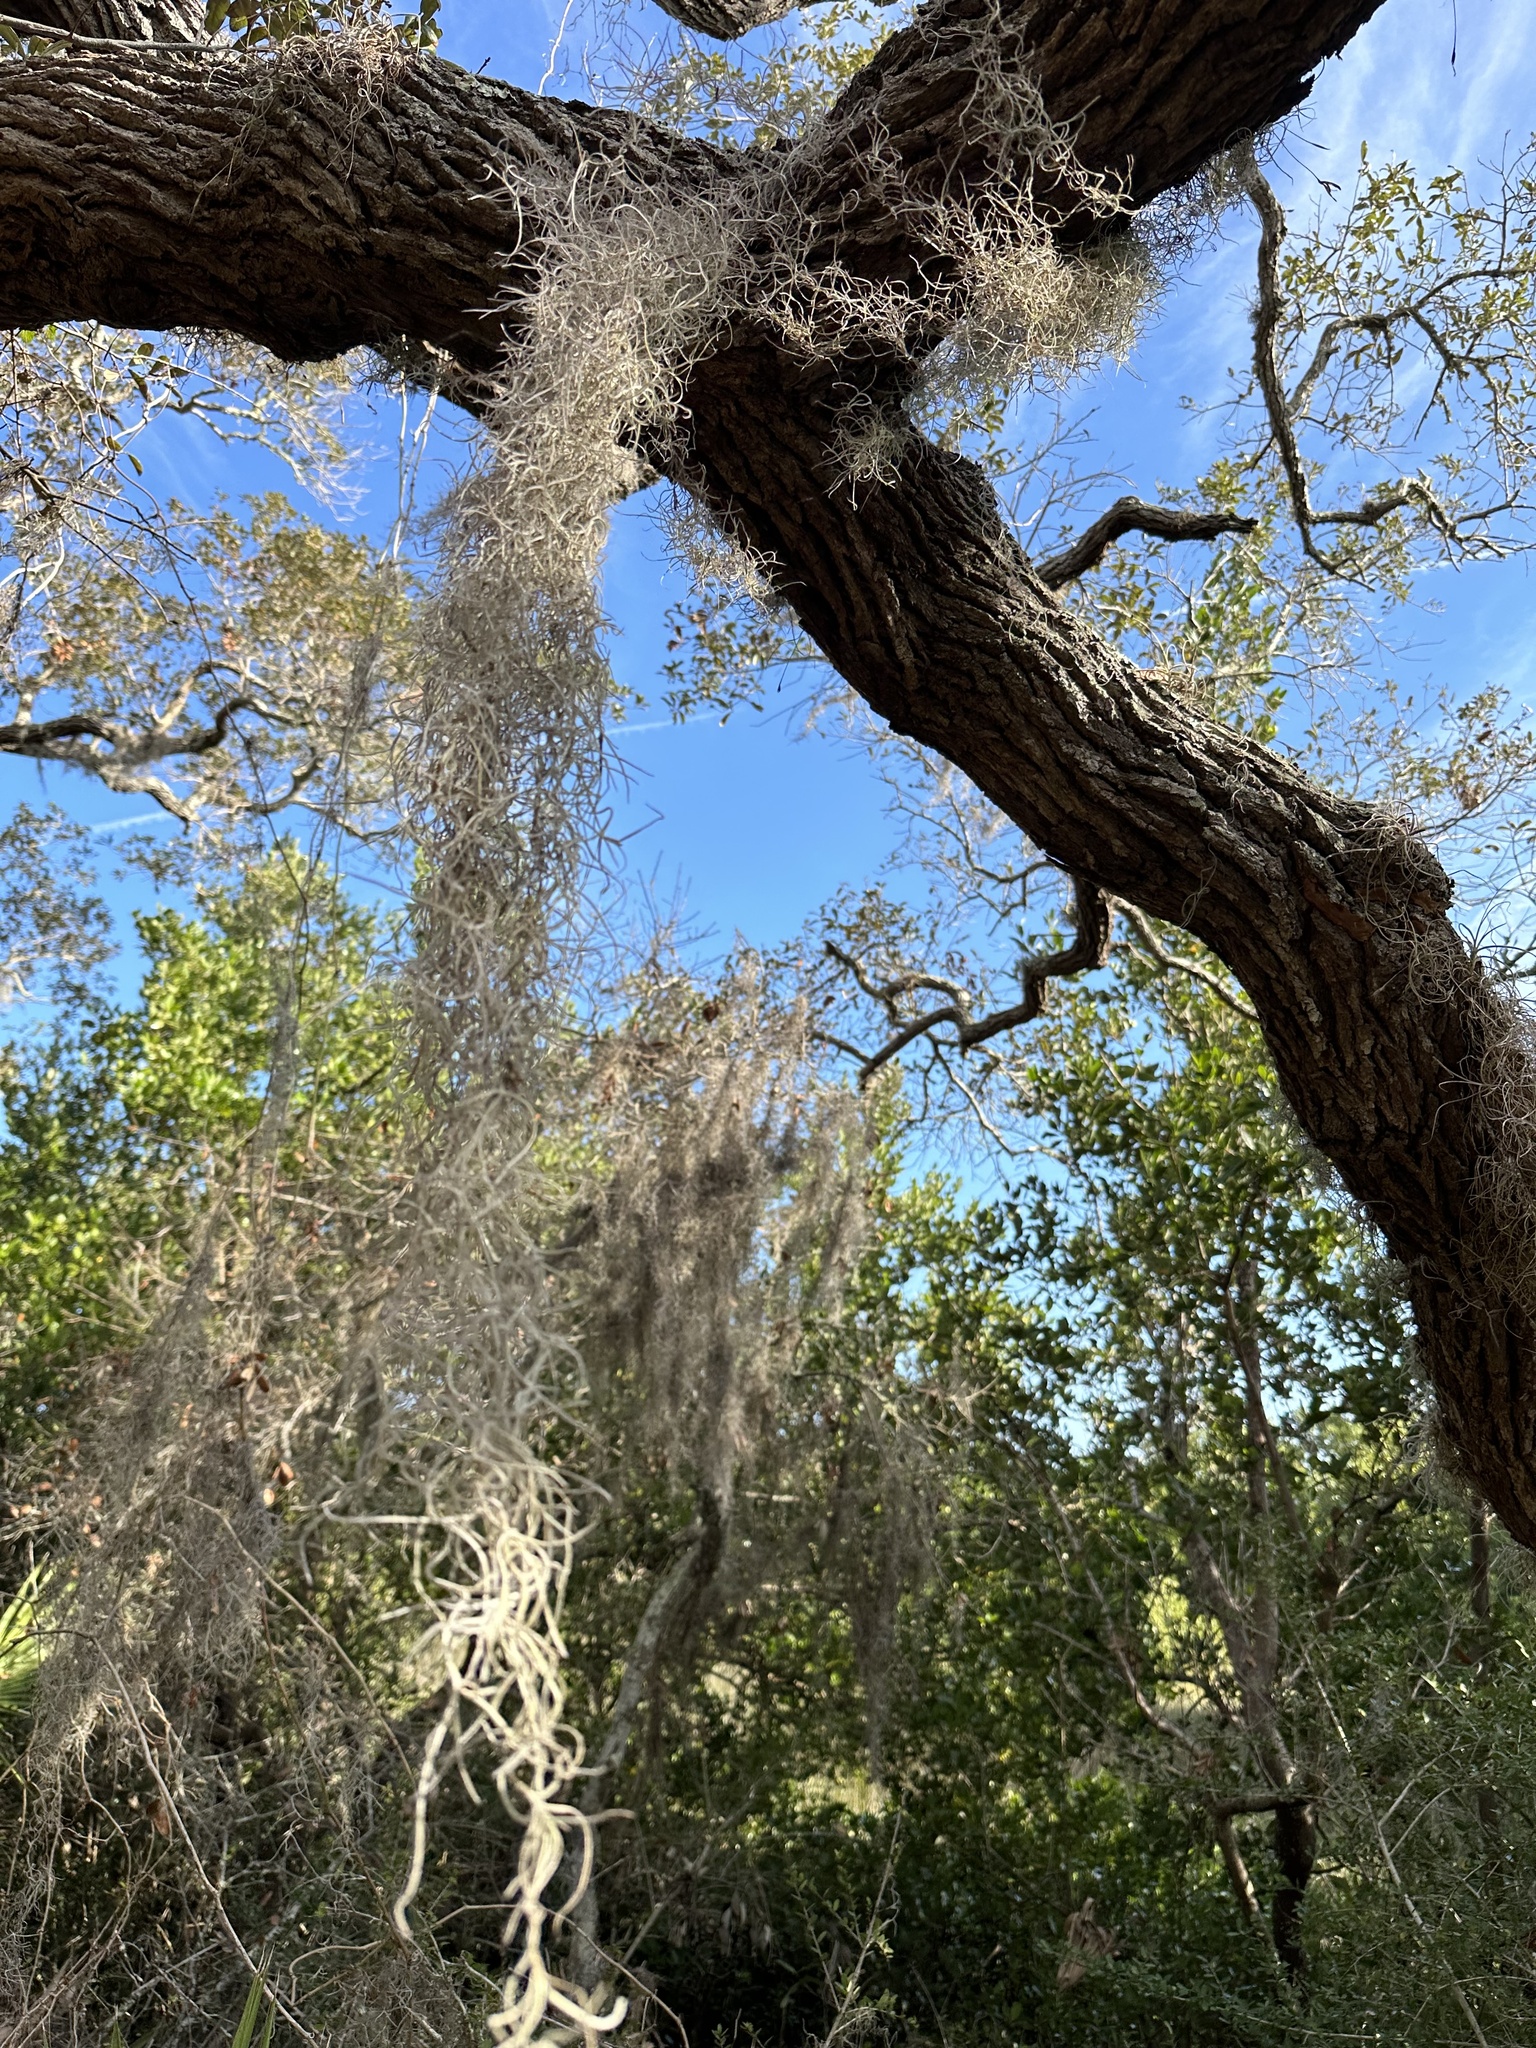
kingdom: Plantae
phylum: Tracheophyta
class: Liliopsida
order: Poales
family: Bromeliaceae
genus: Tillandsia
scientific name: Tillandsia usneoides
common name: Spanish moss
